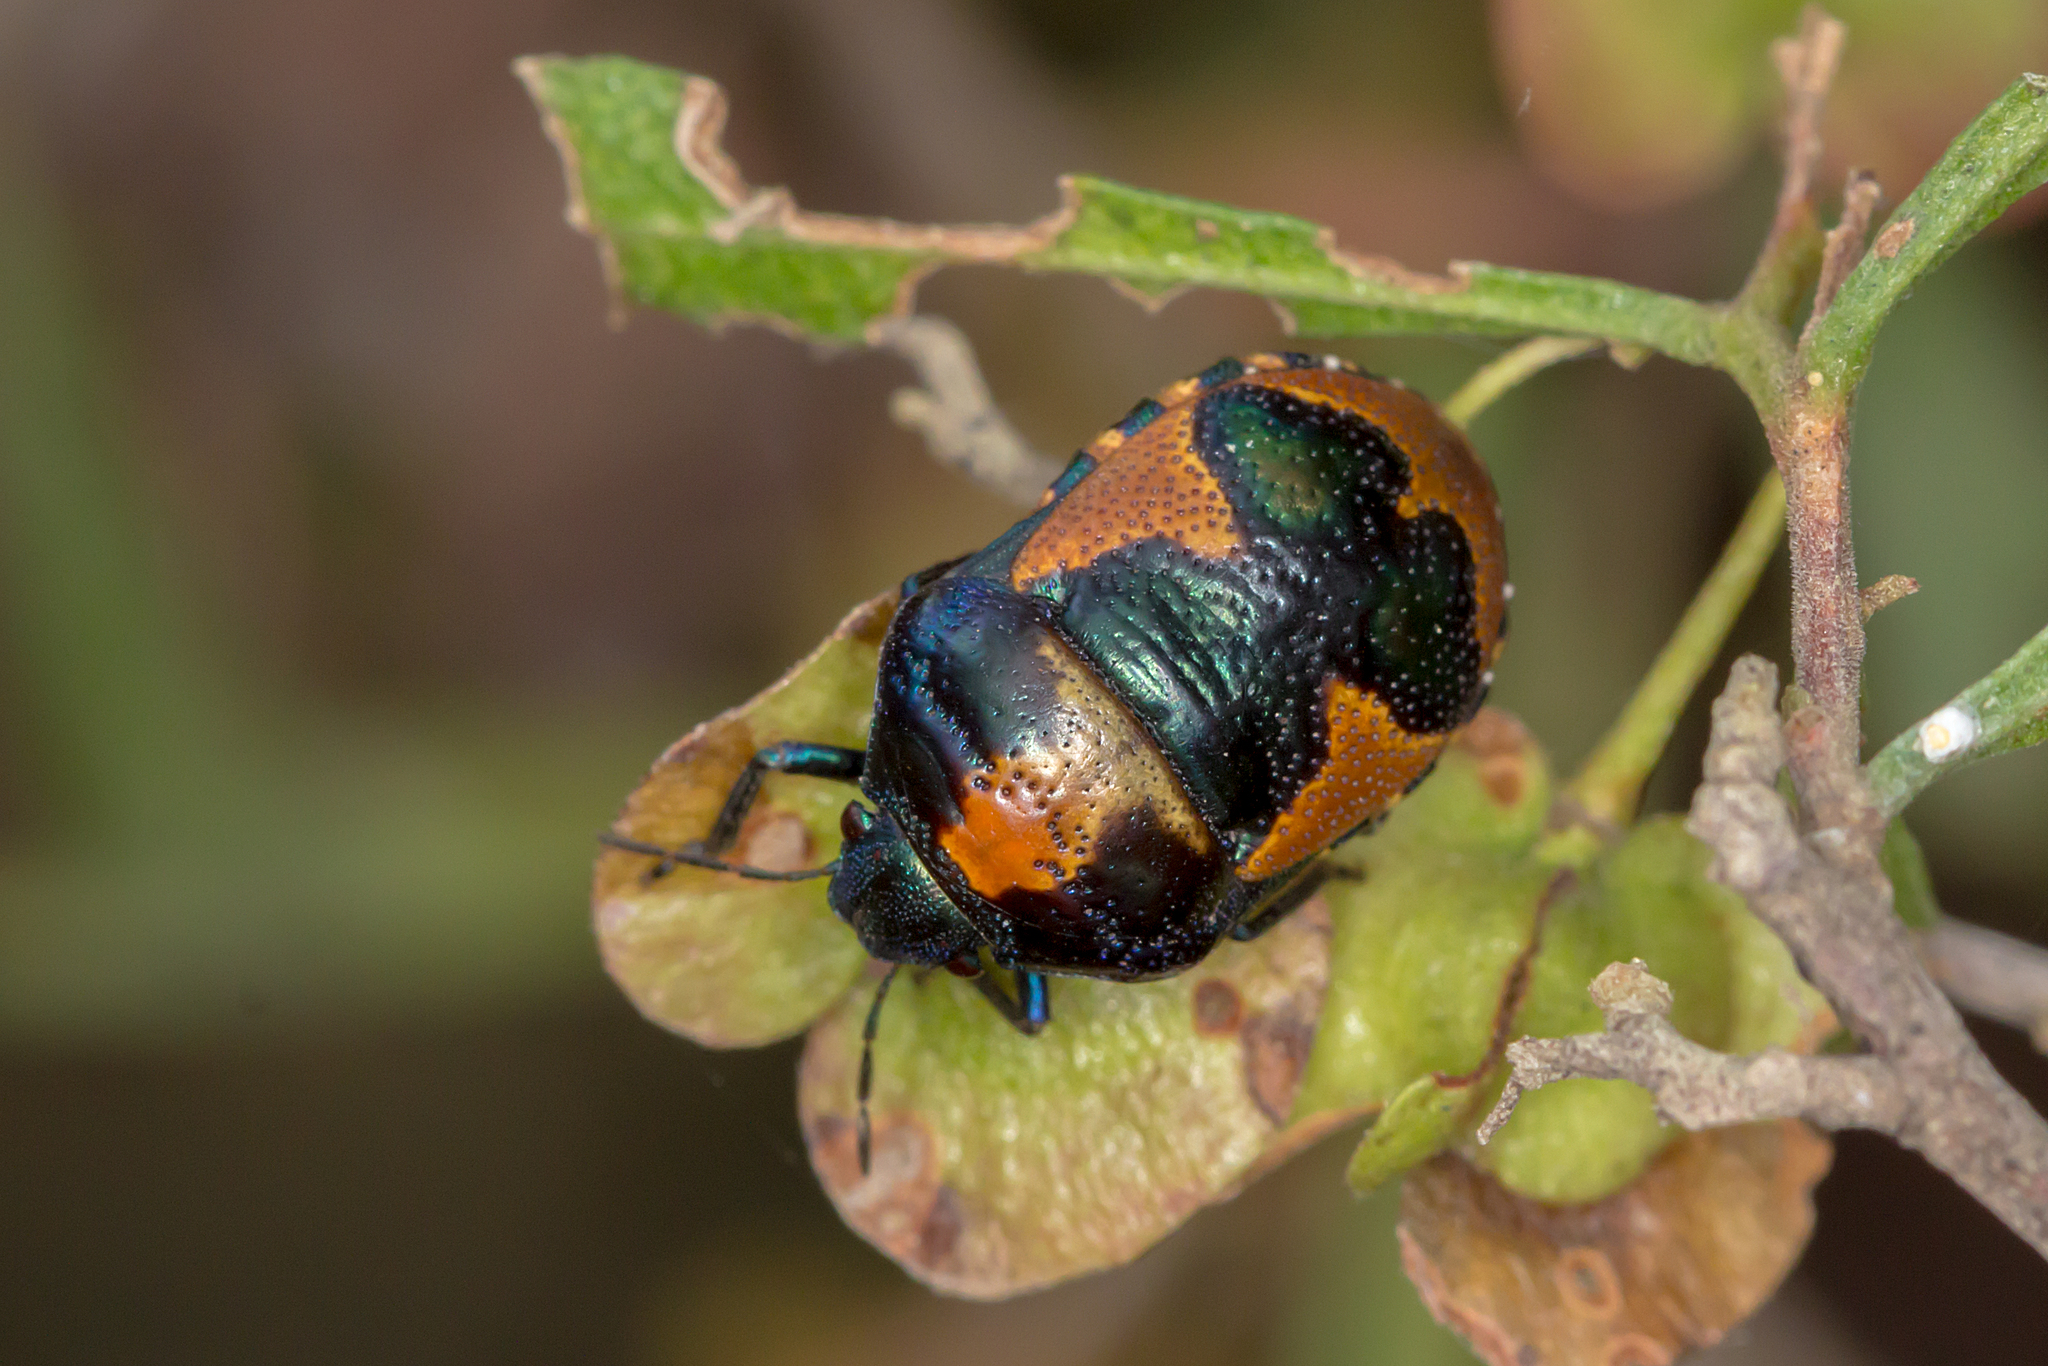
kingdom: Animalia
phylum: Arthropoda
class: Insecta
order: Hemiptera
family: Scutelleridae
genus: Choerocoris
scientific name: Choerocoris paganus
